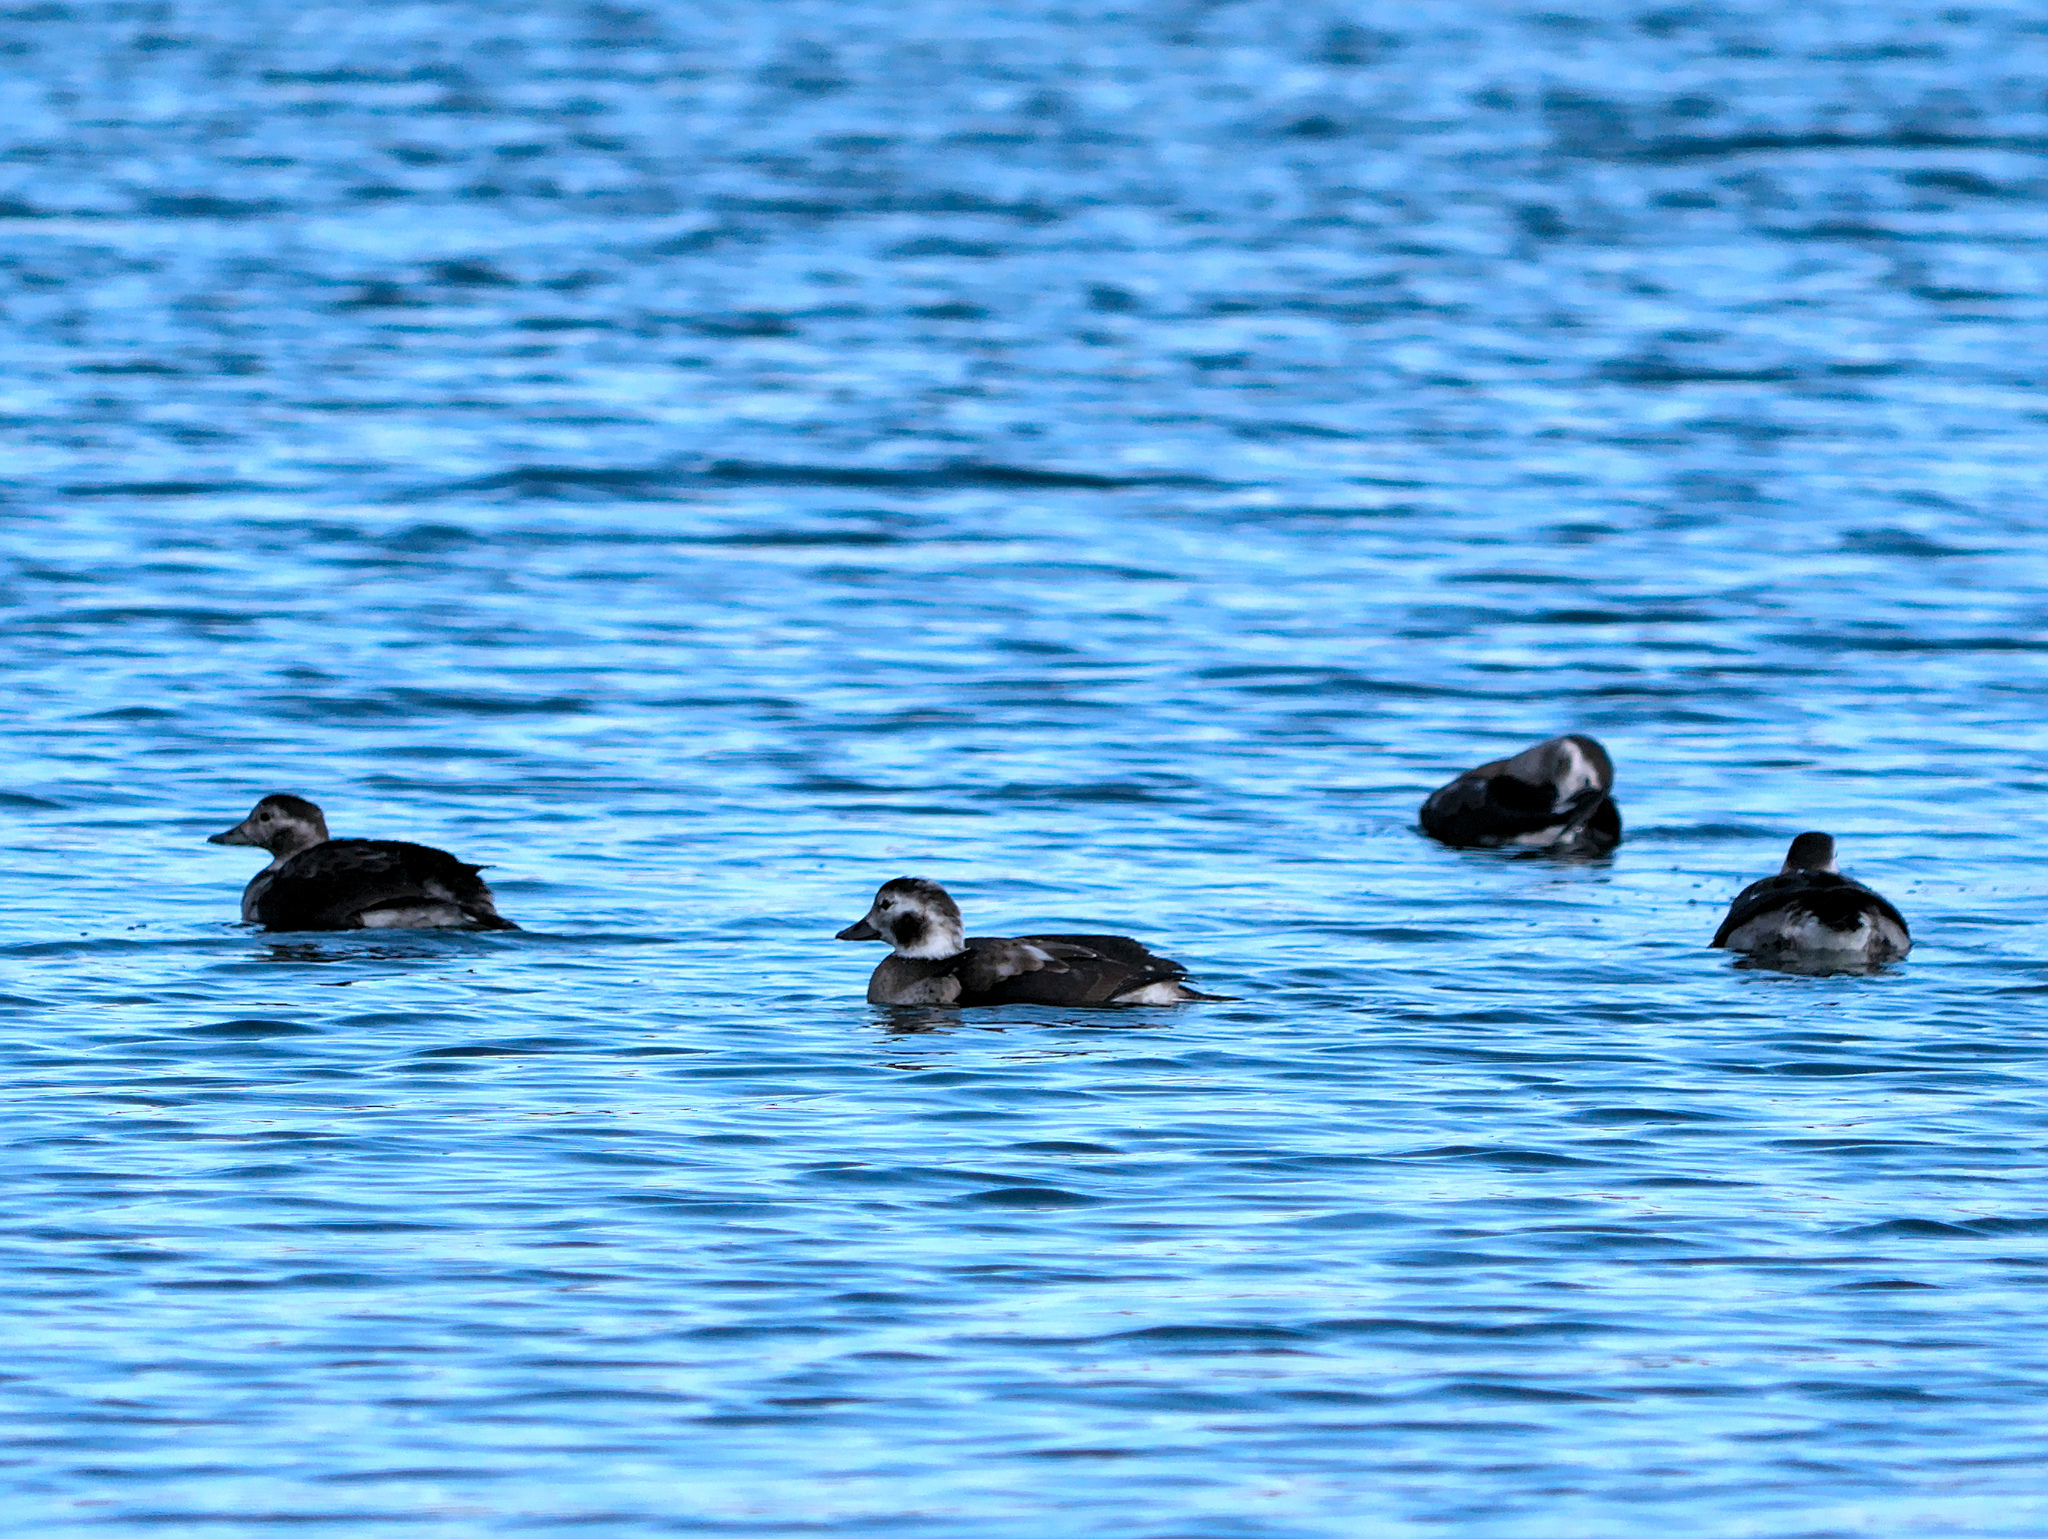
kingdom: Animalia
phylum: Chordata
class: Aves
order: Anseriformes
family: Anatidae
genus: Clangula
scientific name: Clangula hyemalis
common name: Long-tailed duck
